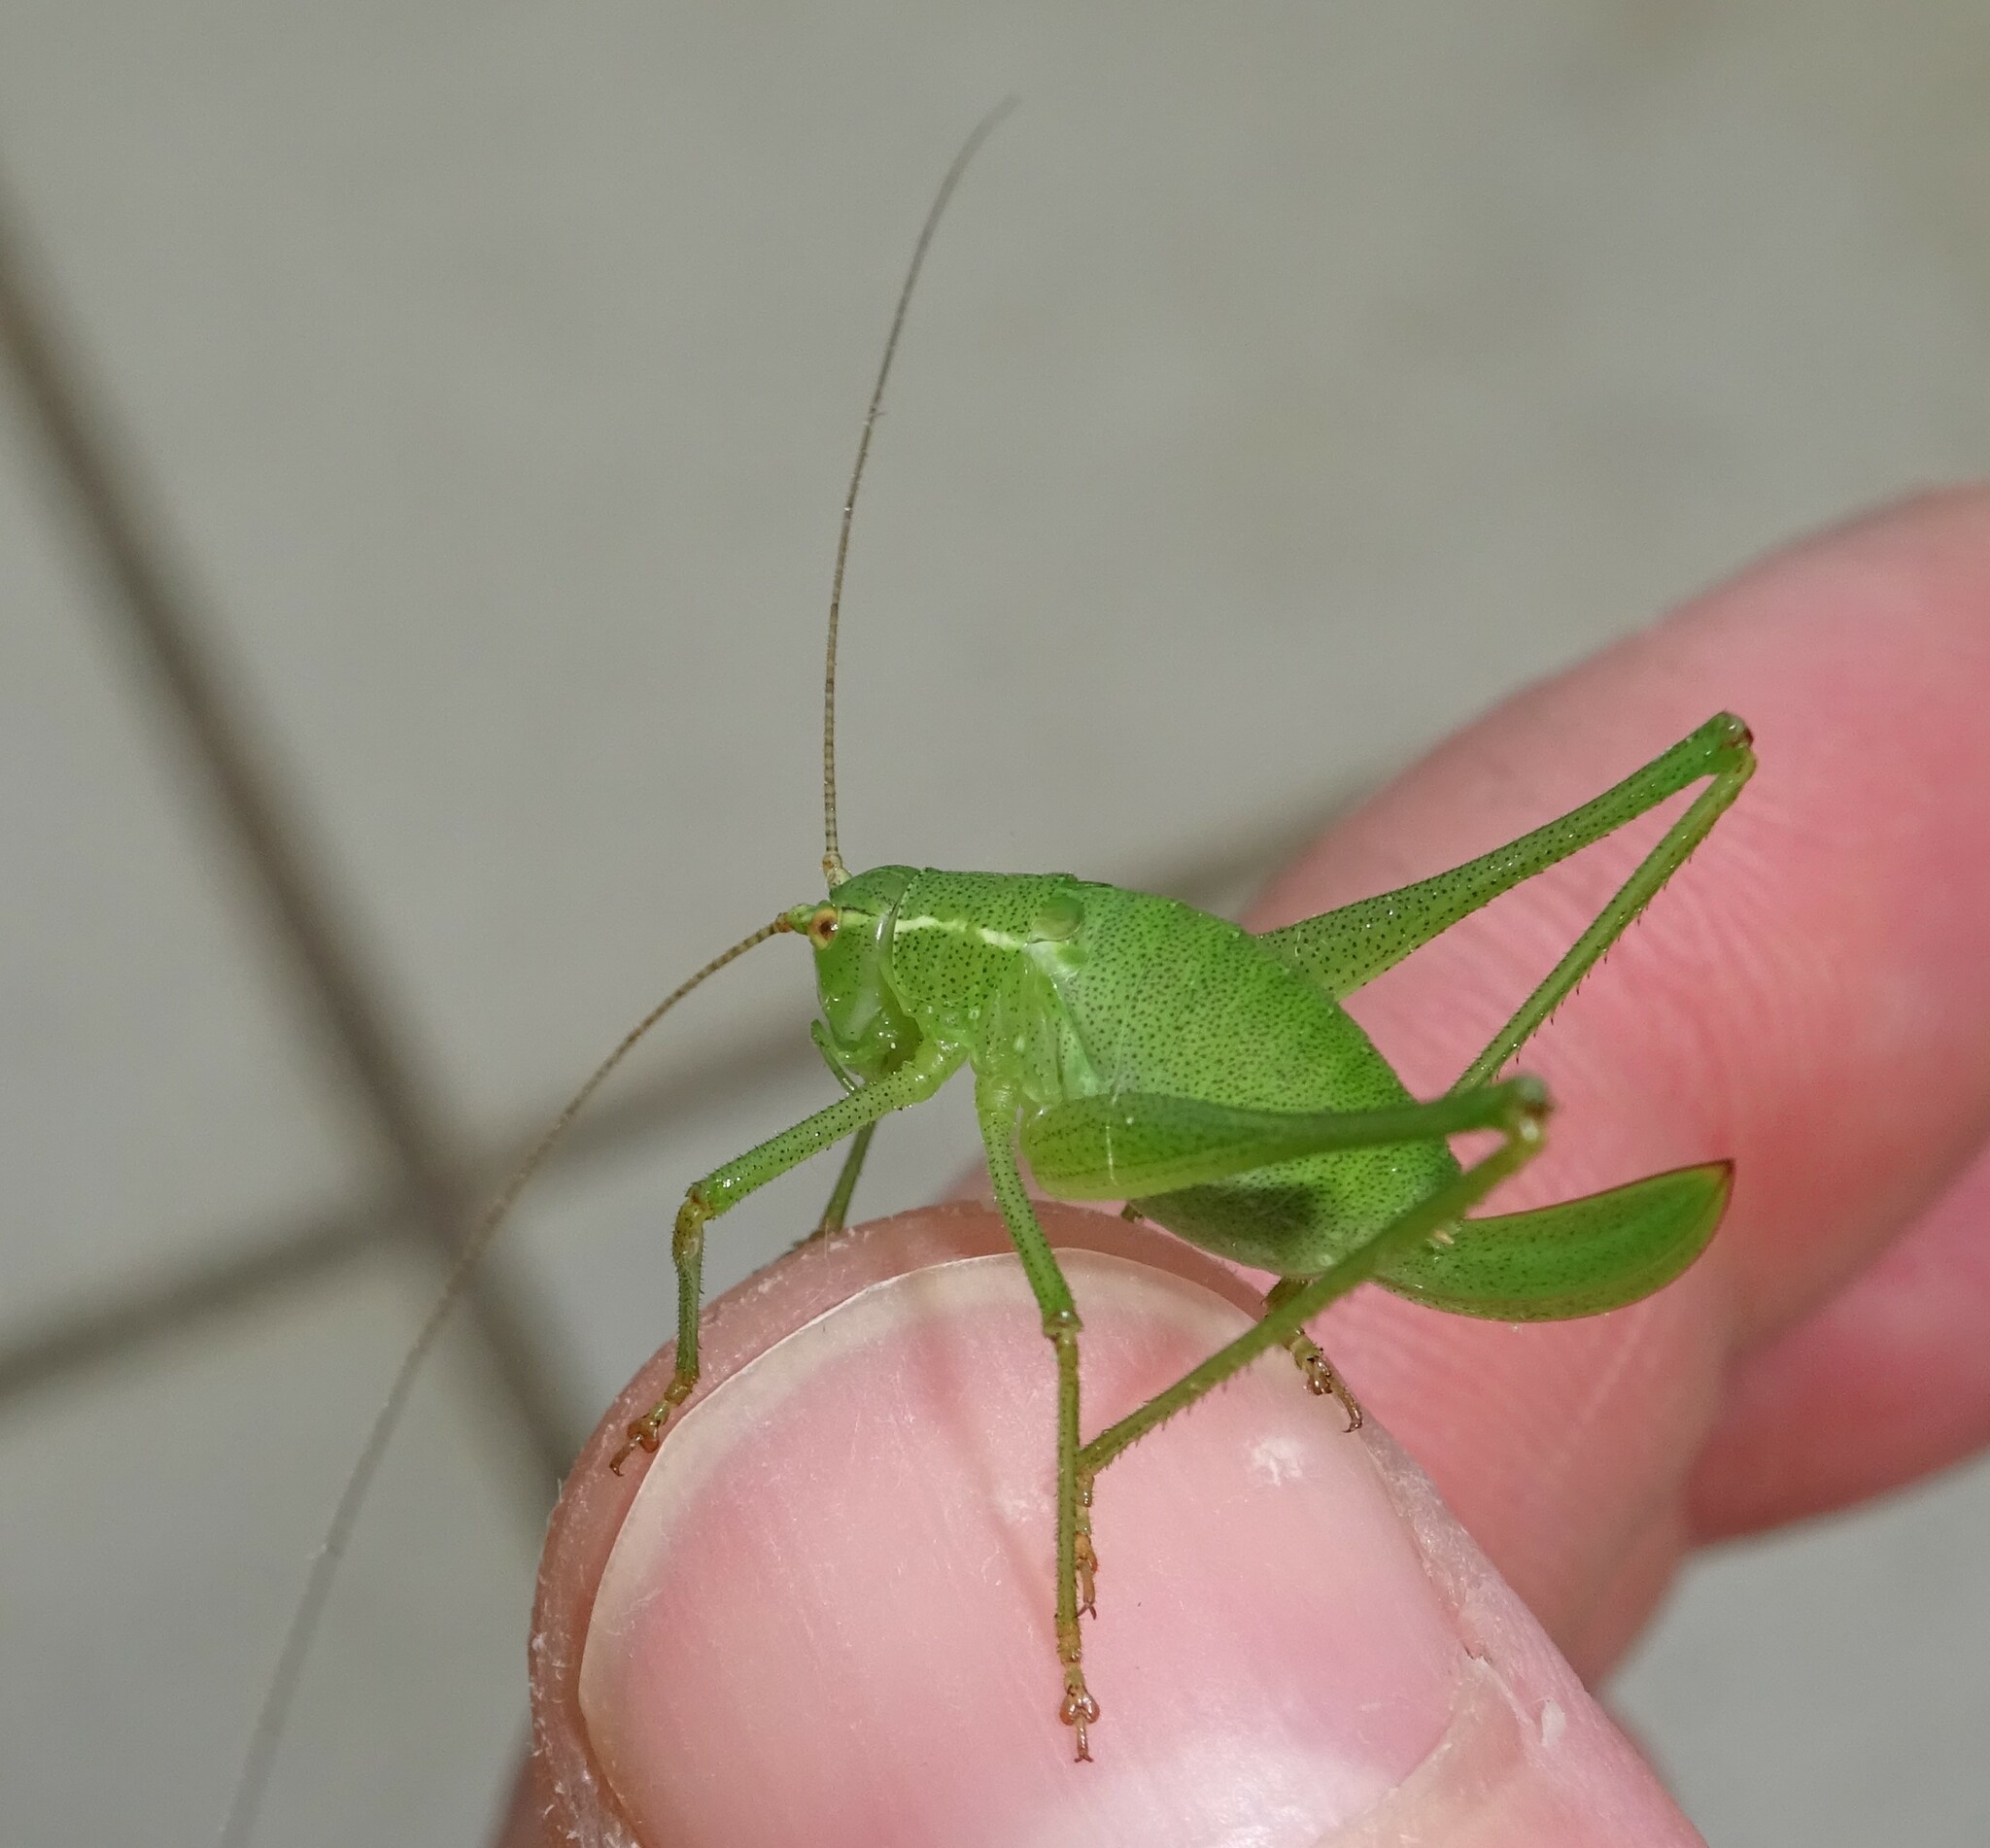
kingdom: Animalia
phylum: Arthropoda
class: Insecta
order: Orthoptera
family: Tettigoniidae
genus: Leptophyes
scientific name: Leptophyes punctatissima
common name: Speckled bush-cricket
